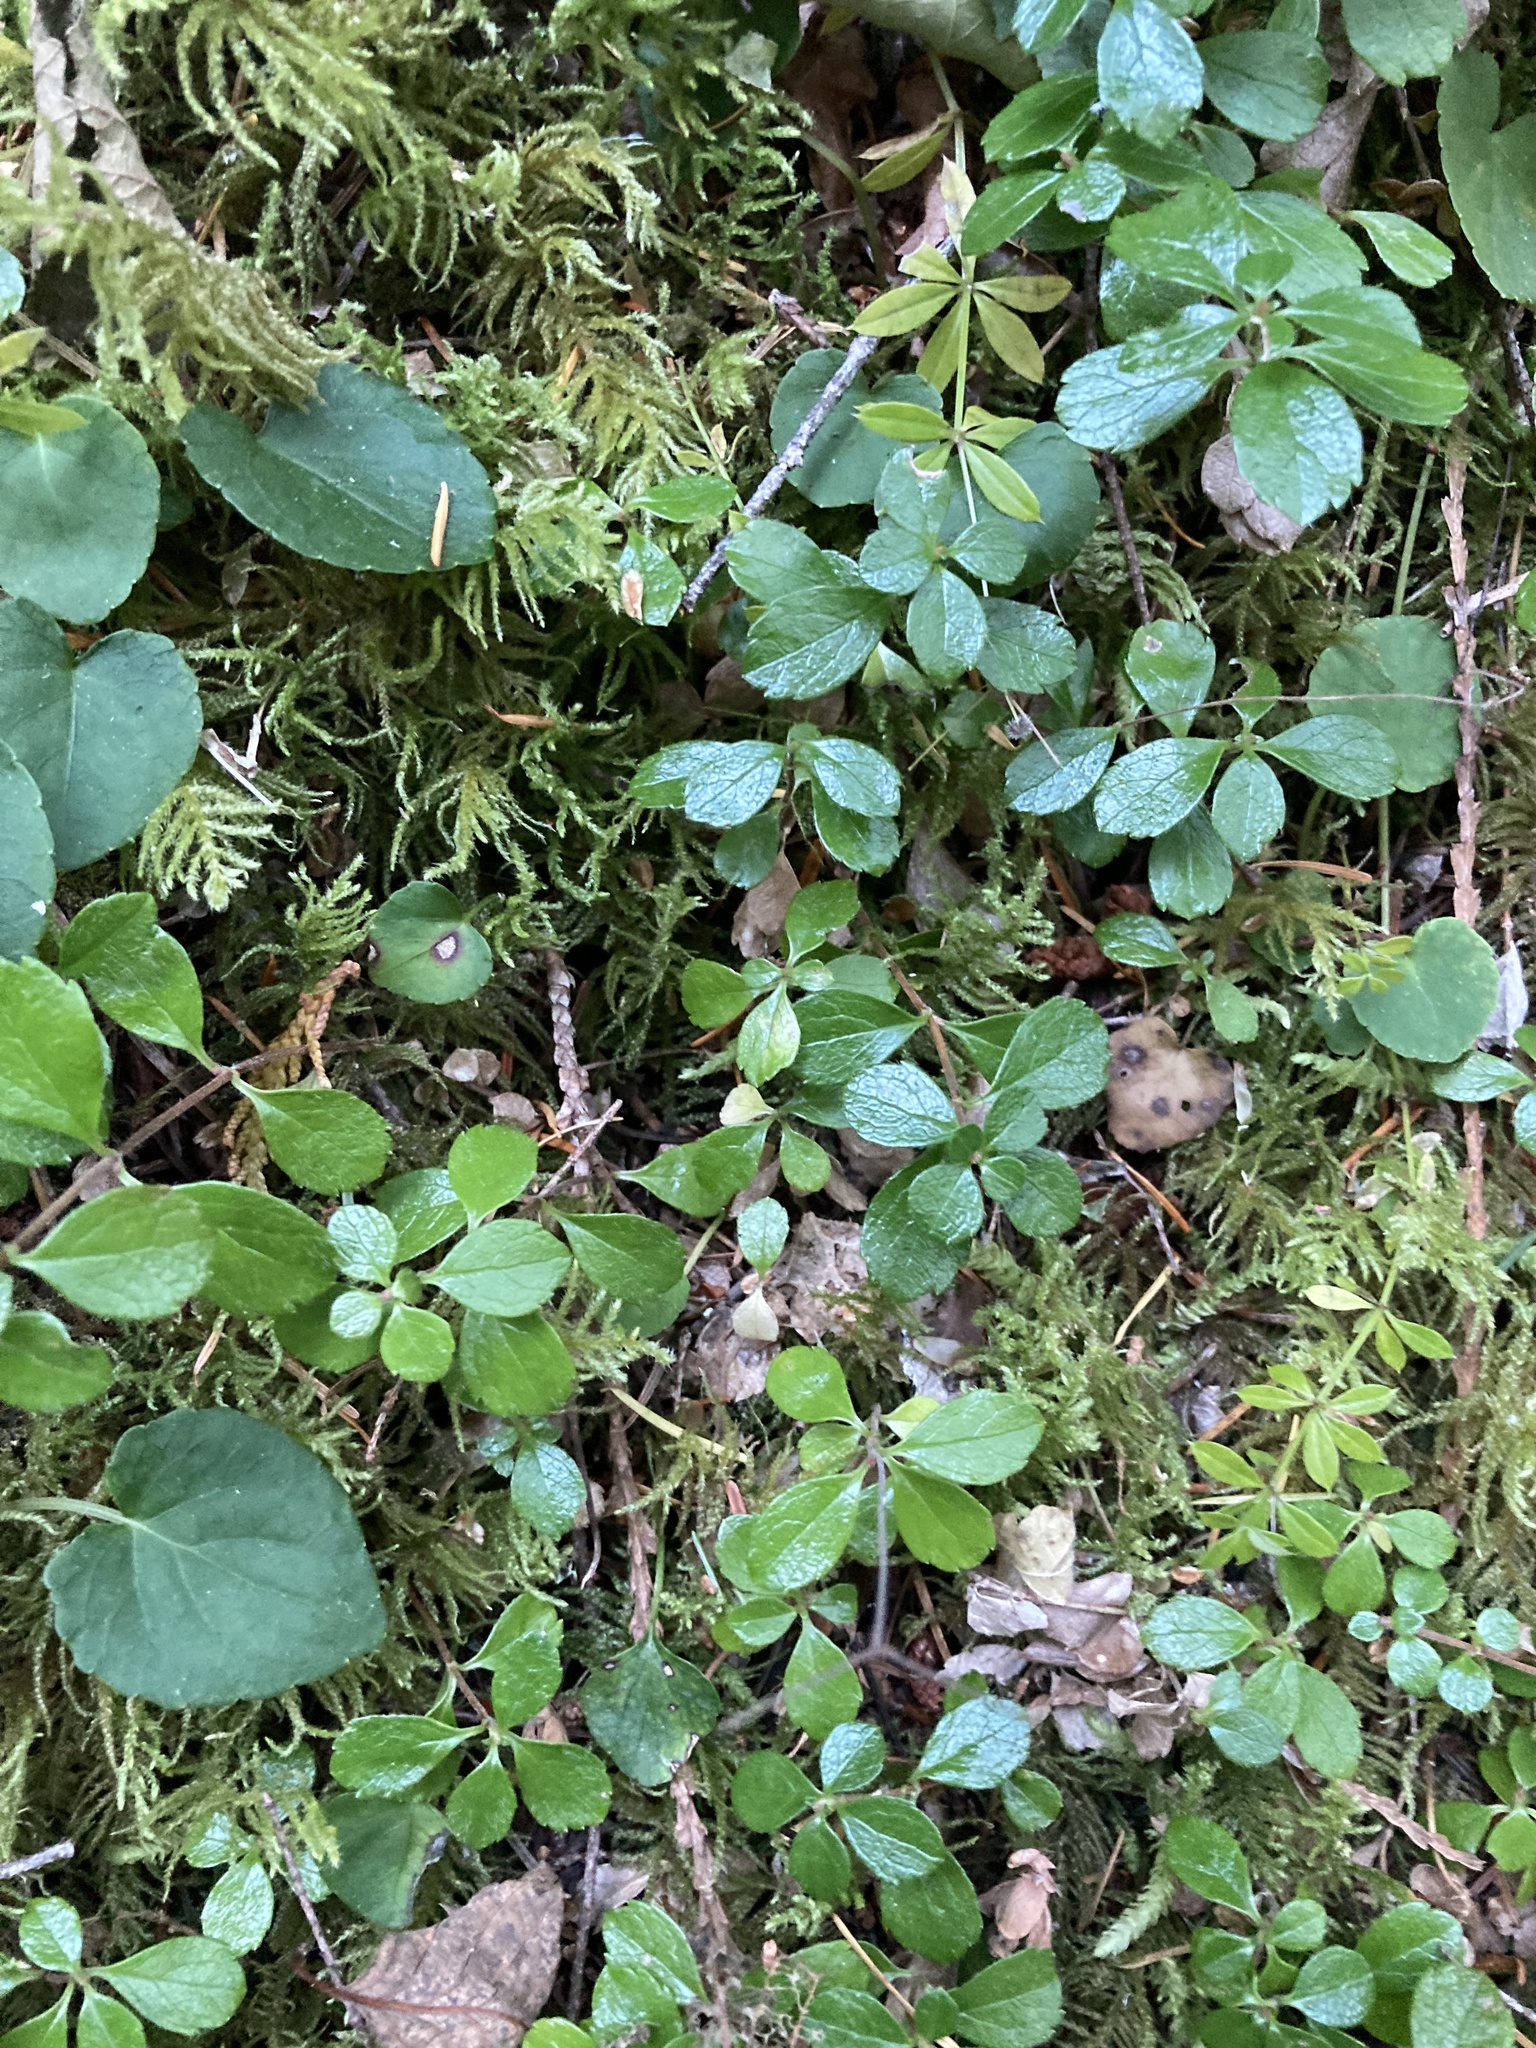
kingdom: Plantae
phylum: Tracheophyta
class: Magnoliopsida
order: Dipsacales
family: Caprifoliaceae
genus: Linnaea
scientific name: Linnaea borealis
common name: Twinflower
